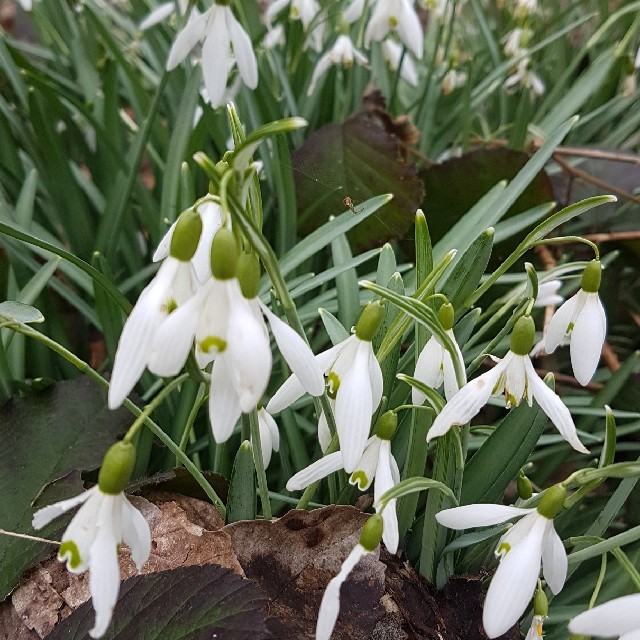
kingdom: Plantae
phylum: Tracheophyta
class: Liliopsida
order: Asparagales
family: Amaryllidaceae
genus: Galanthus
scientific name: Galanthus nivalis
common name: Snowdrop
